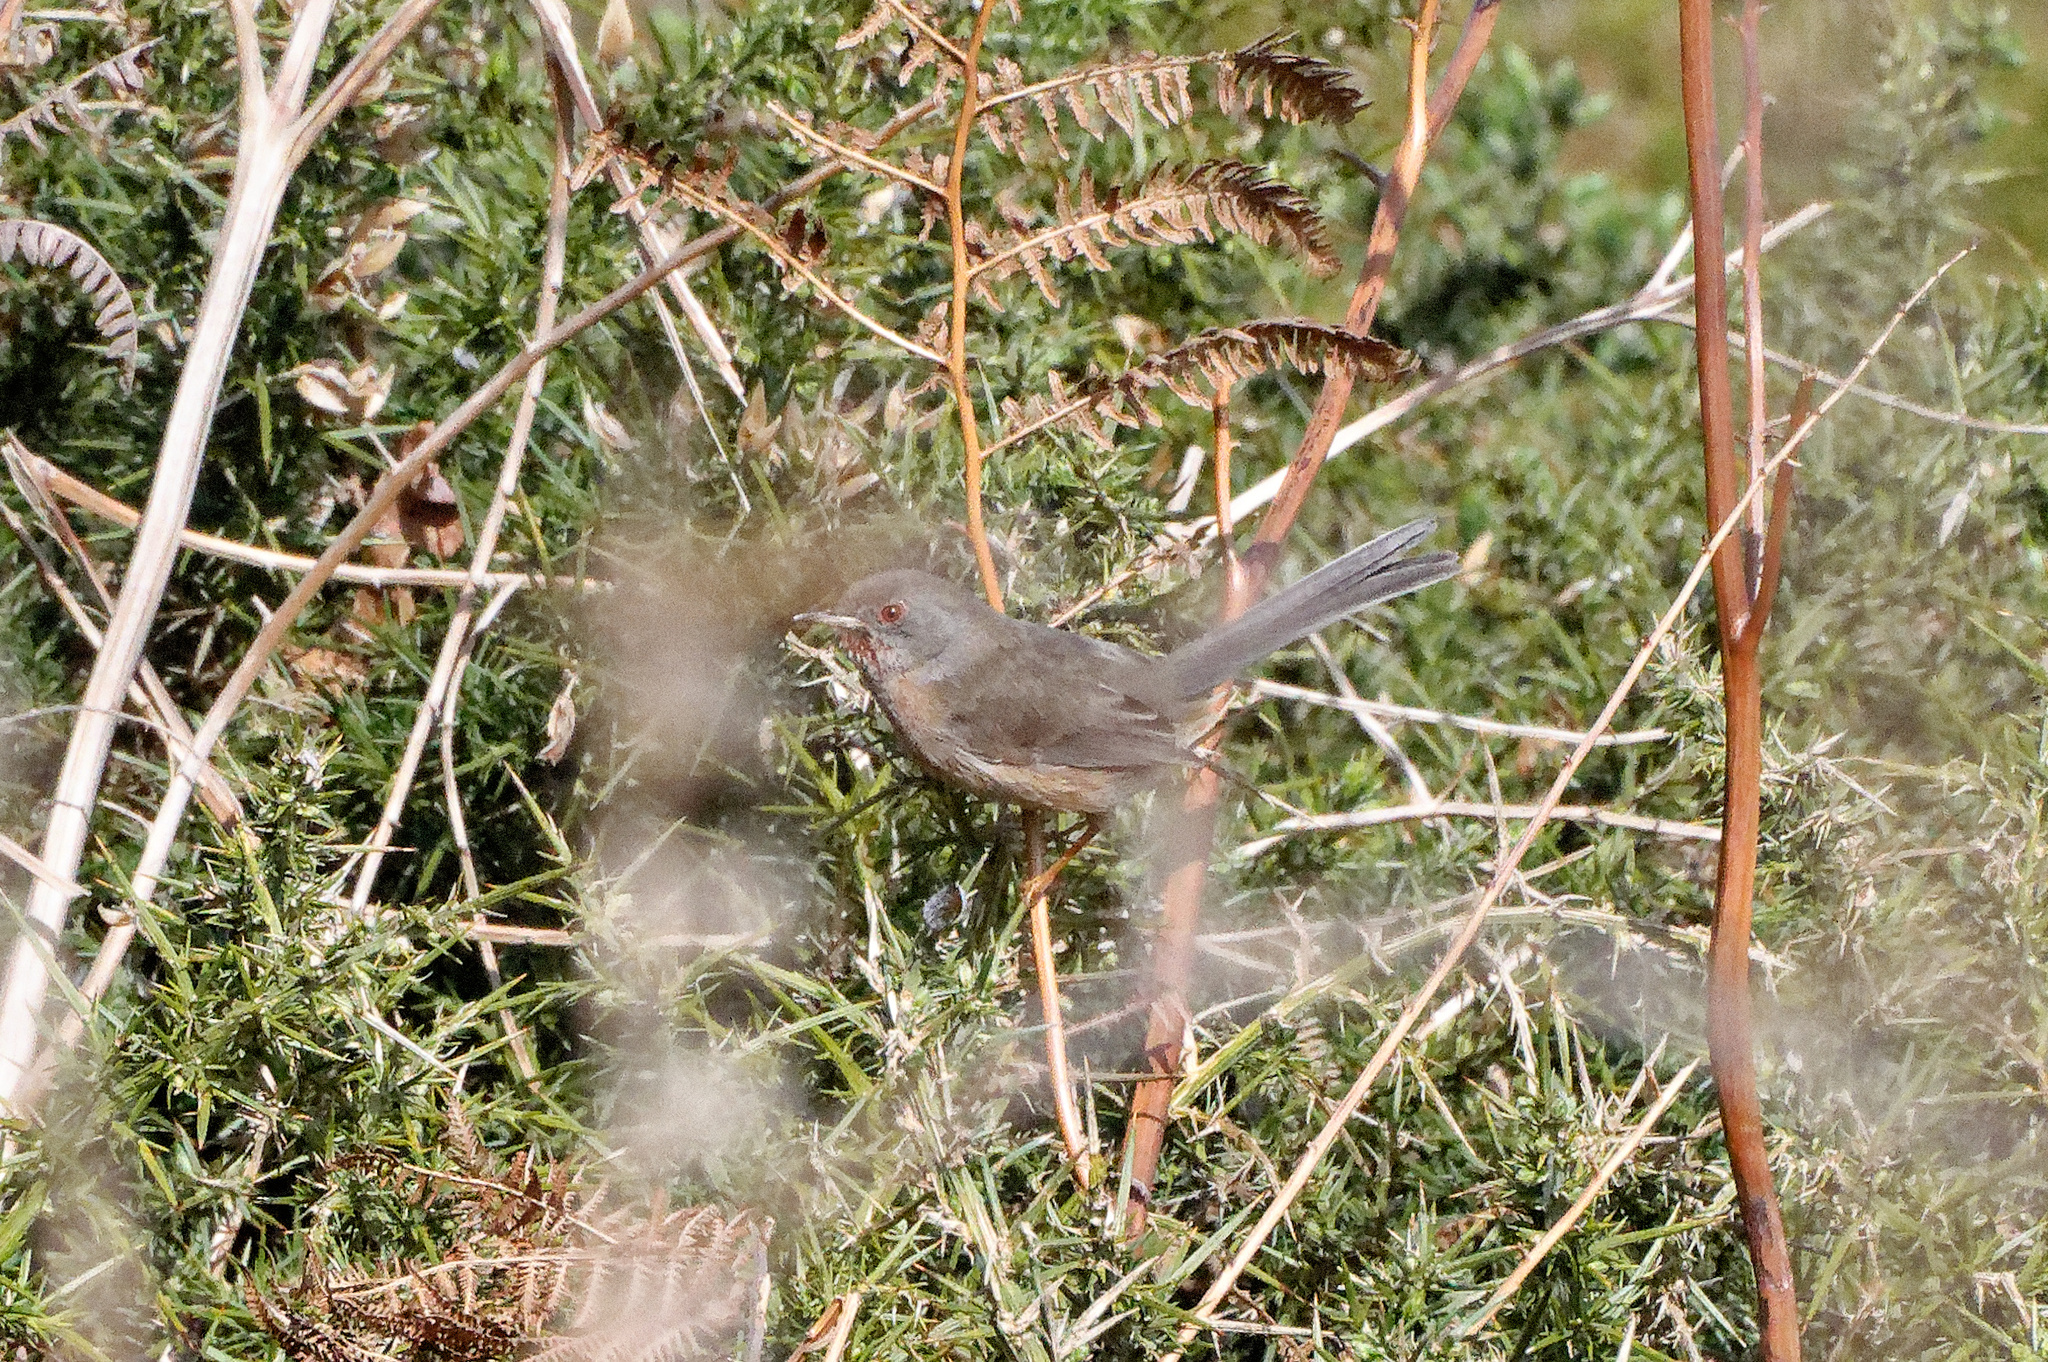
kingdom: Animalia
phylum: Chordata
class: Aves
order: Passeriformes
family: Sylviidae
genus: Sylvia
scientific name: Sylvia undata
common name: Dartford warbler
